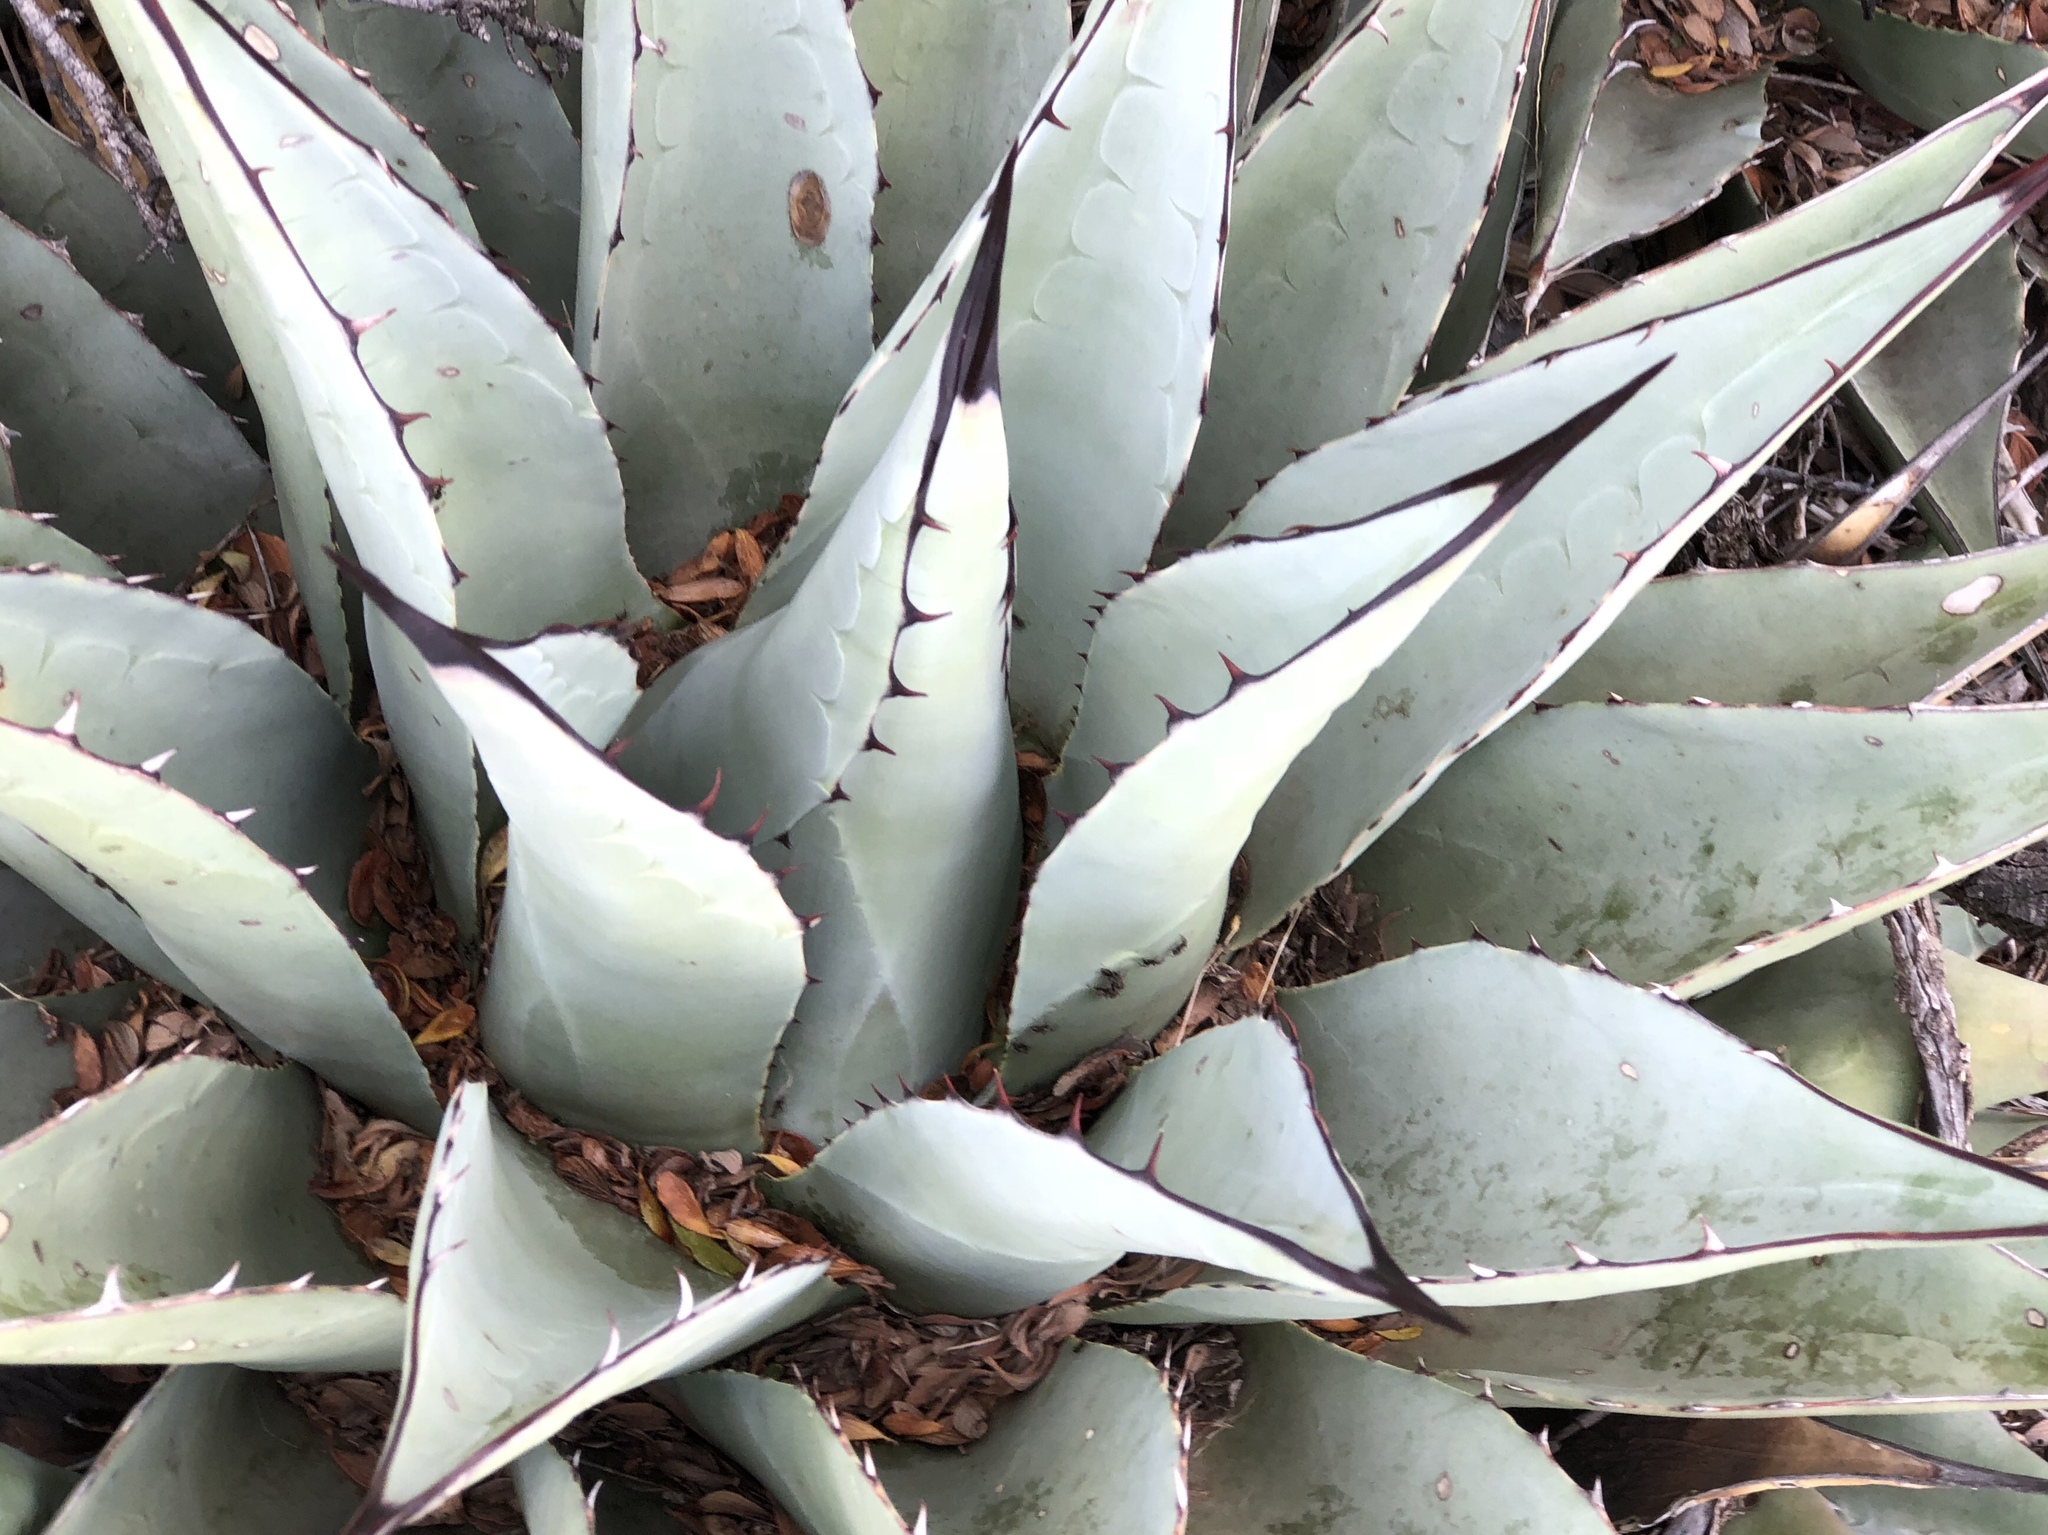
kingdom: Plantae
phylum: Tracheophyta
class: Liliopsida
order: Asparagales
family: Asparagaceae
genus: Agave
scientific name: Agave parryi
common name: Parry's agave
